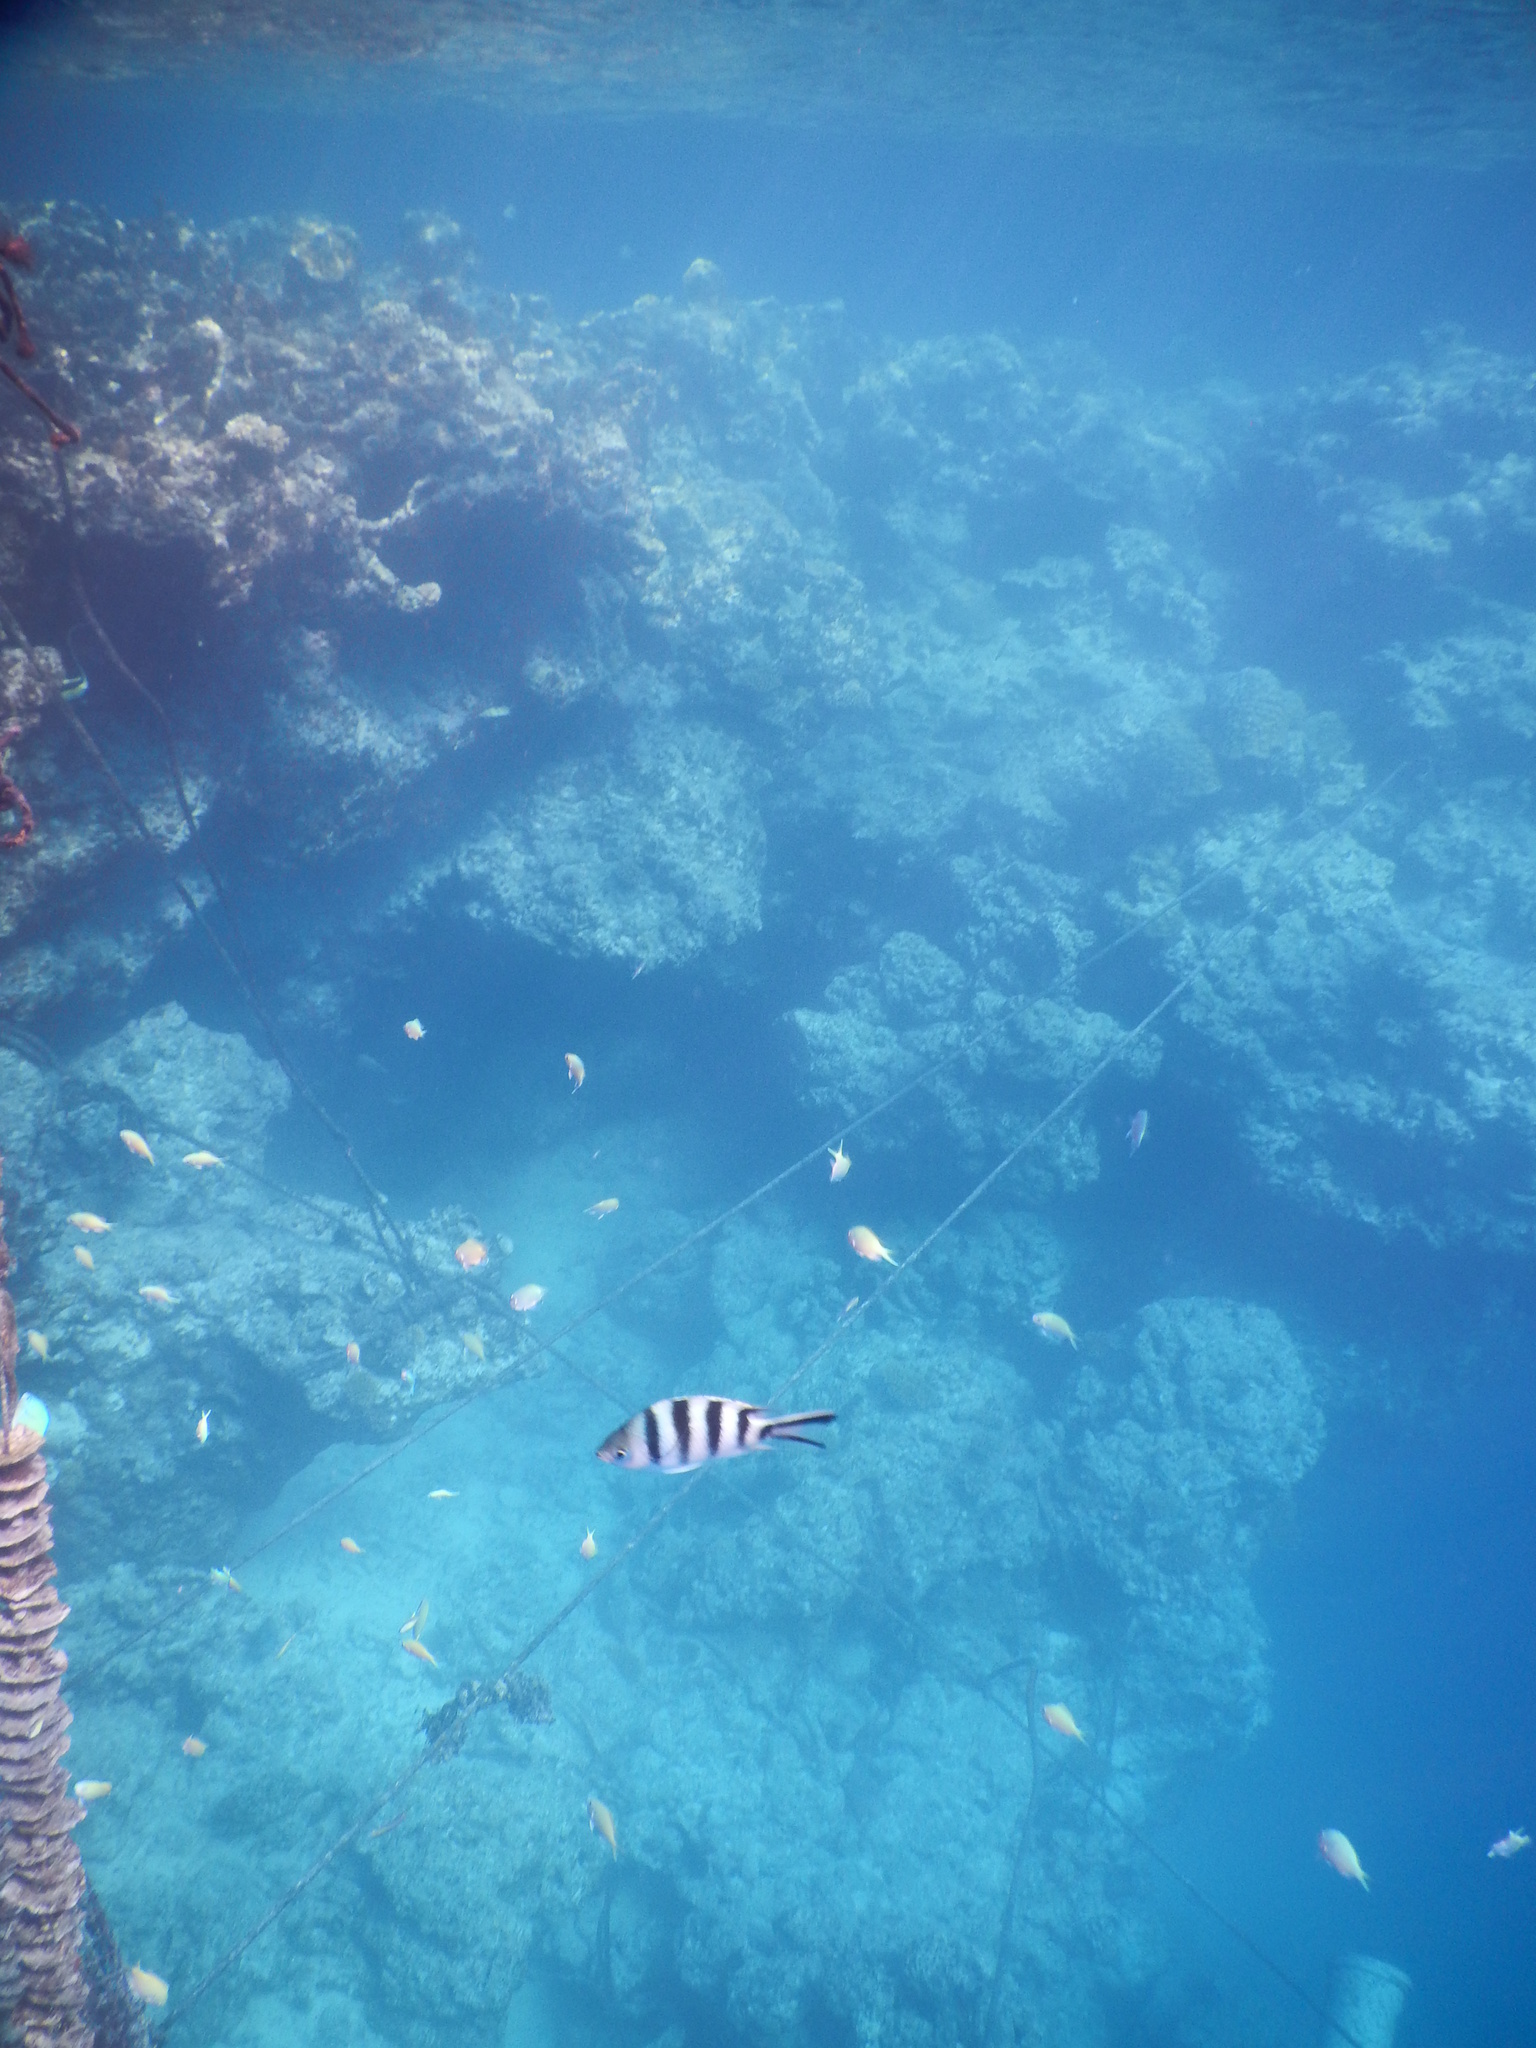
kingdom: Animalia
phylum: Chordata
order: Perciformes
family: Pomacentridae
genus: Abudefduf
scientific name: Abudefduf sexfasciatus
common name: Scissortail sergeant
